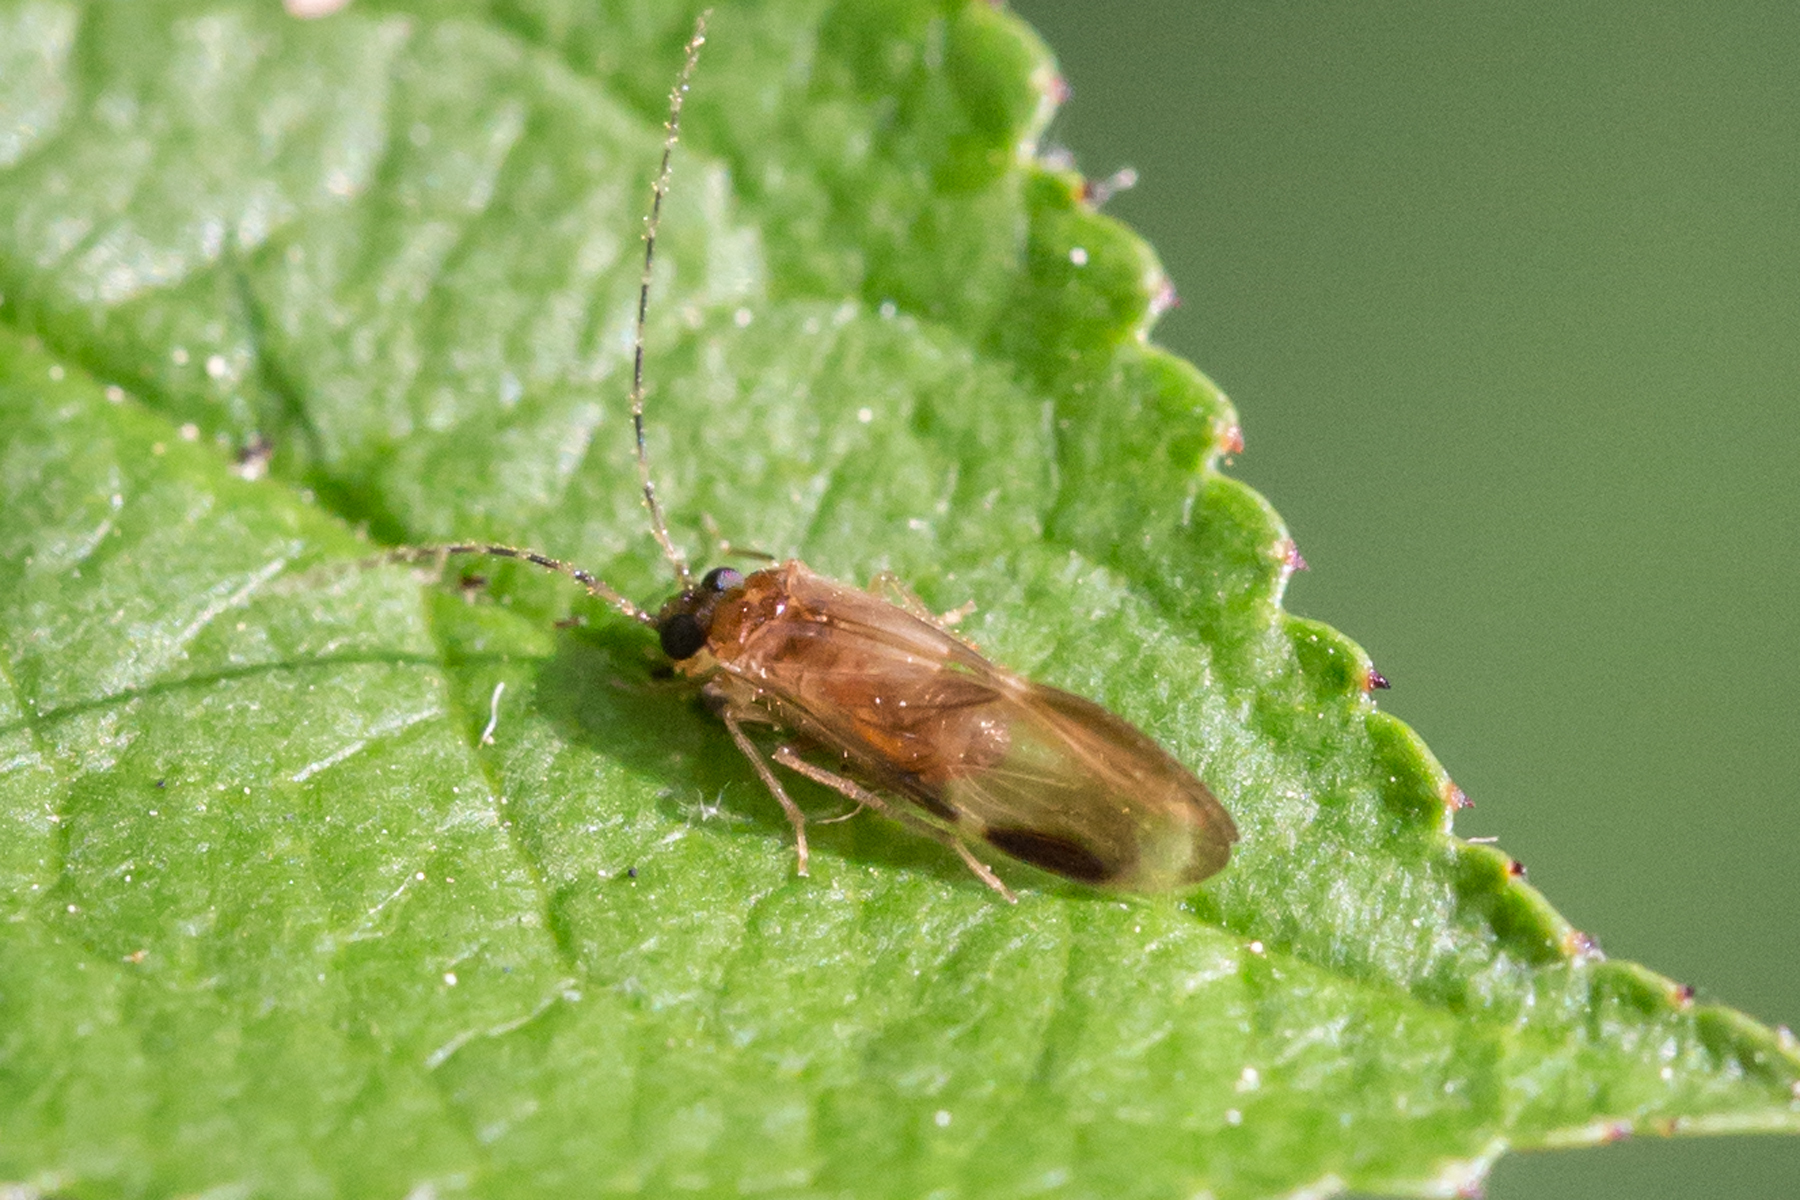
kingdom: Animalia
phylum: Arthropoda
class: Insecta
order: Psocodea
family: Amphipsocidae
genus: Polypsocus
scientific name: Polypsocus corruptus
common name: Corrupt barklouse
